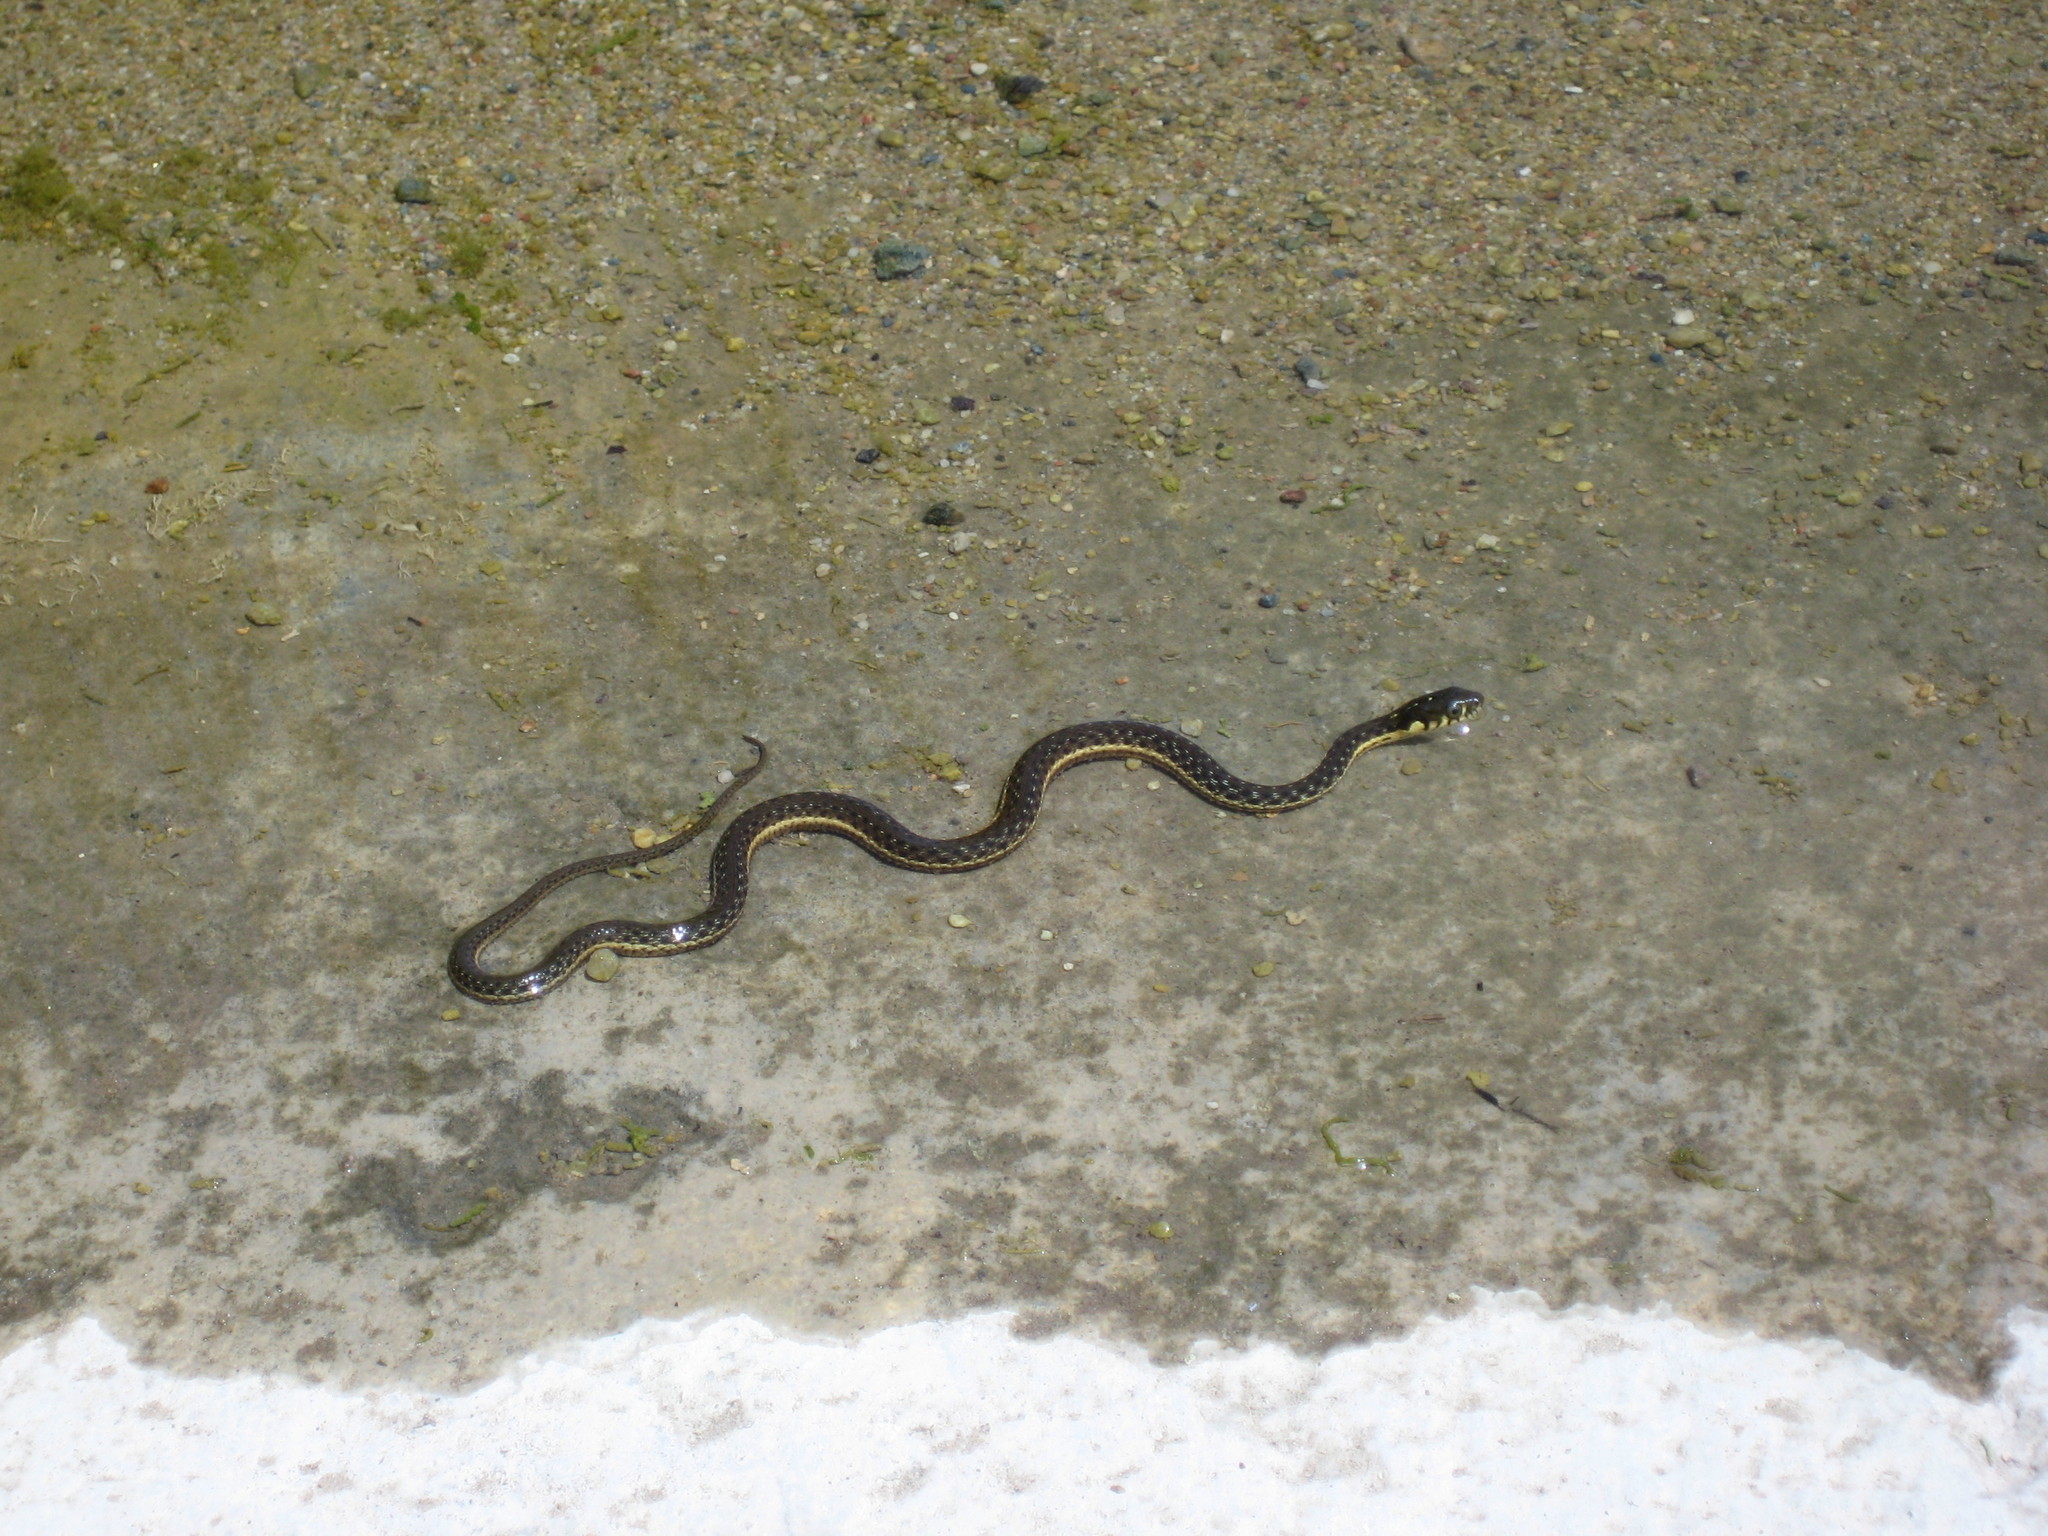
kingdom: Animalia
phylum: Chordata
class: Squamata
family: Colubridae
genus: Thamnophis
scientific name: Thamnophis hammondii
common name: Two-striped garter snake
